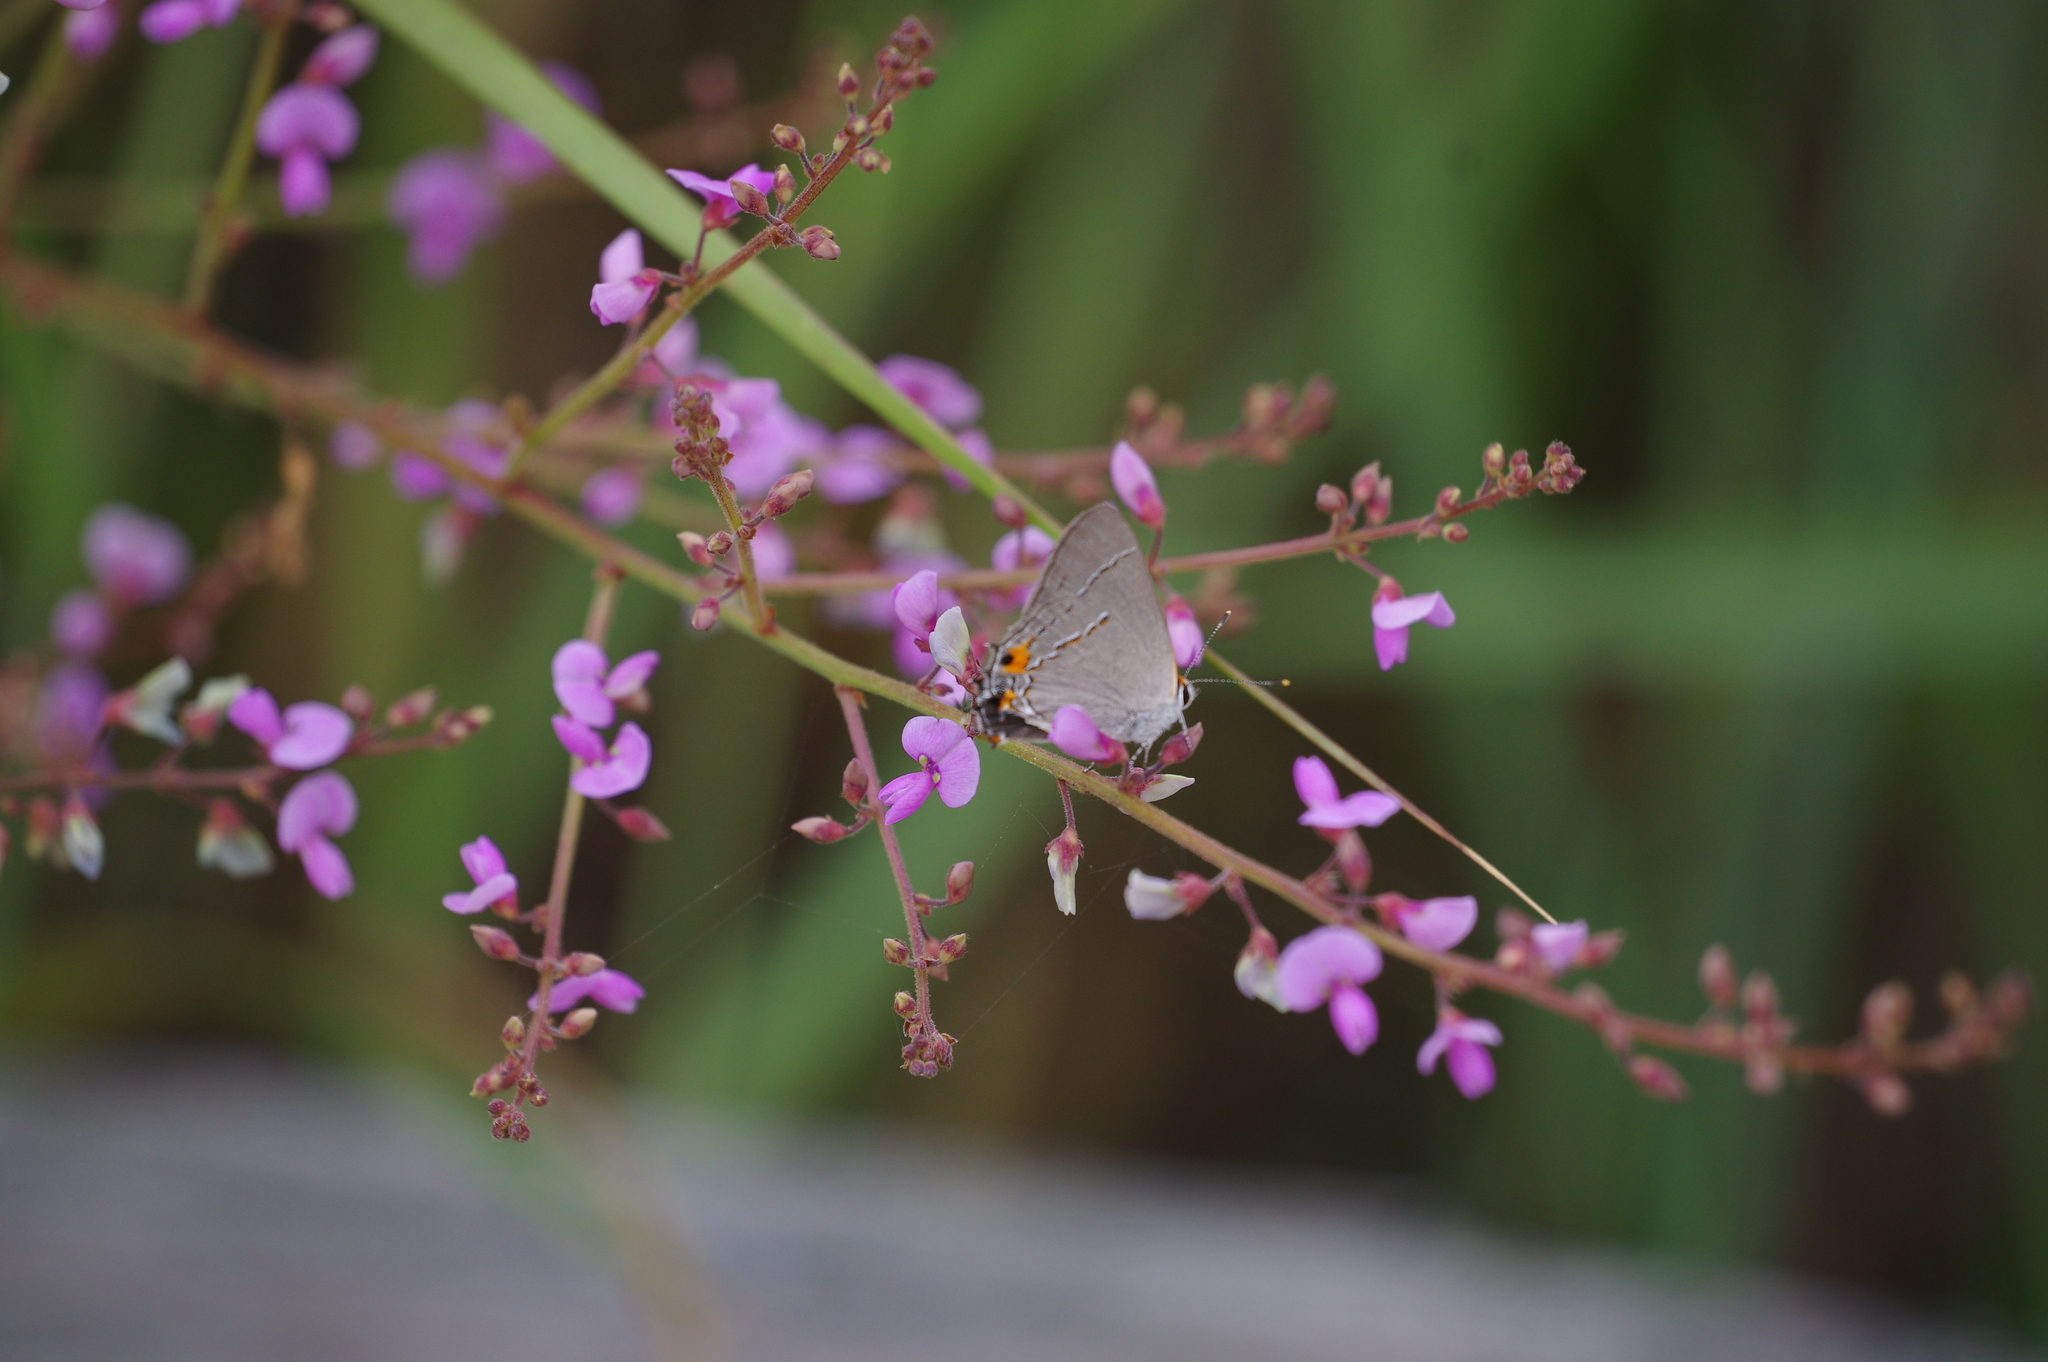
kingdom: Animalia
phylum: Arthropoda
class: Insecta
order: Lepidoptera
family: Lycaenidae
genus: Strymon
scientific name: Strymon melinus
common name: Gray hairstreak
